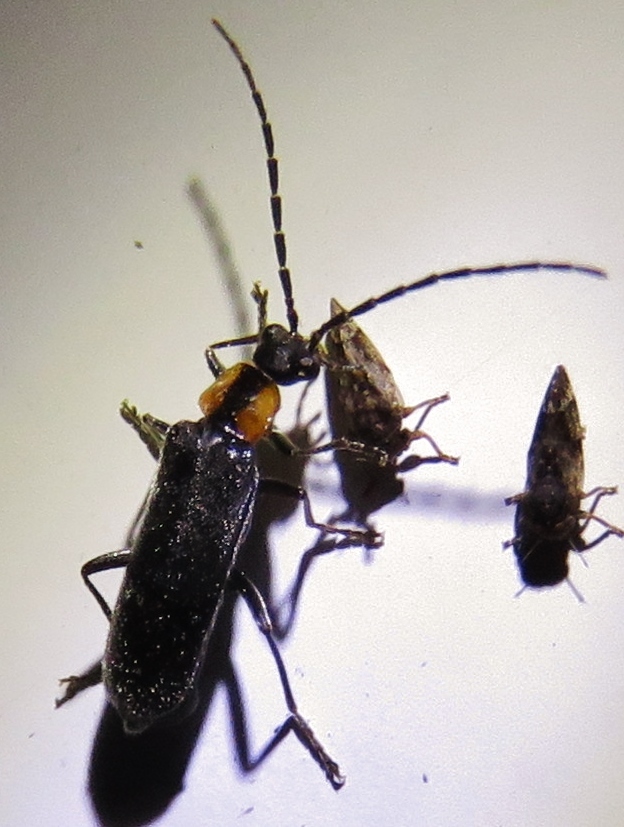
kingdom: Animalia
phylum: Arthropoda
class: Insecta
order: Coleoptera
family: Cantharidae
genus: Rhagonycha
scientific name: Rhagonycha lineola
